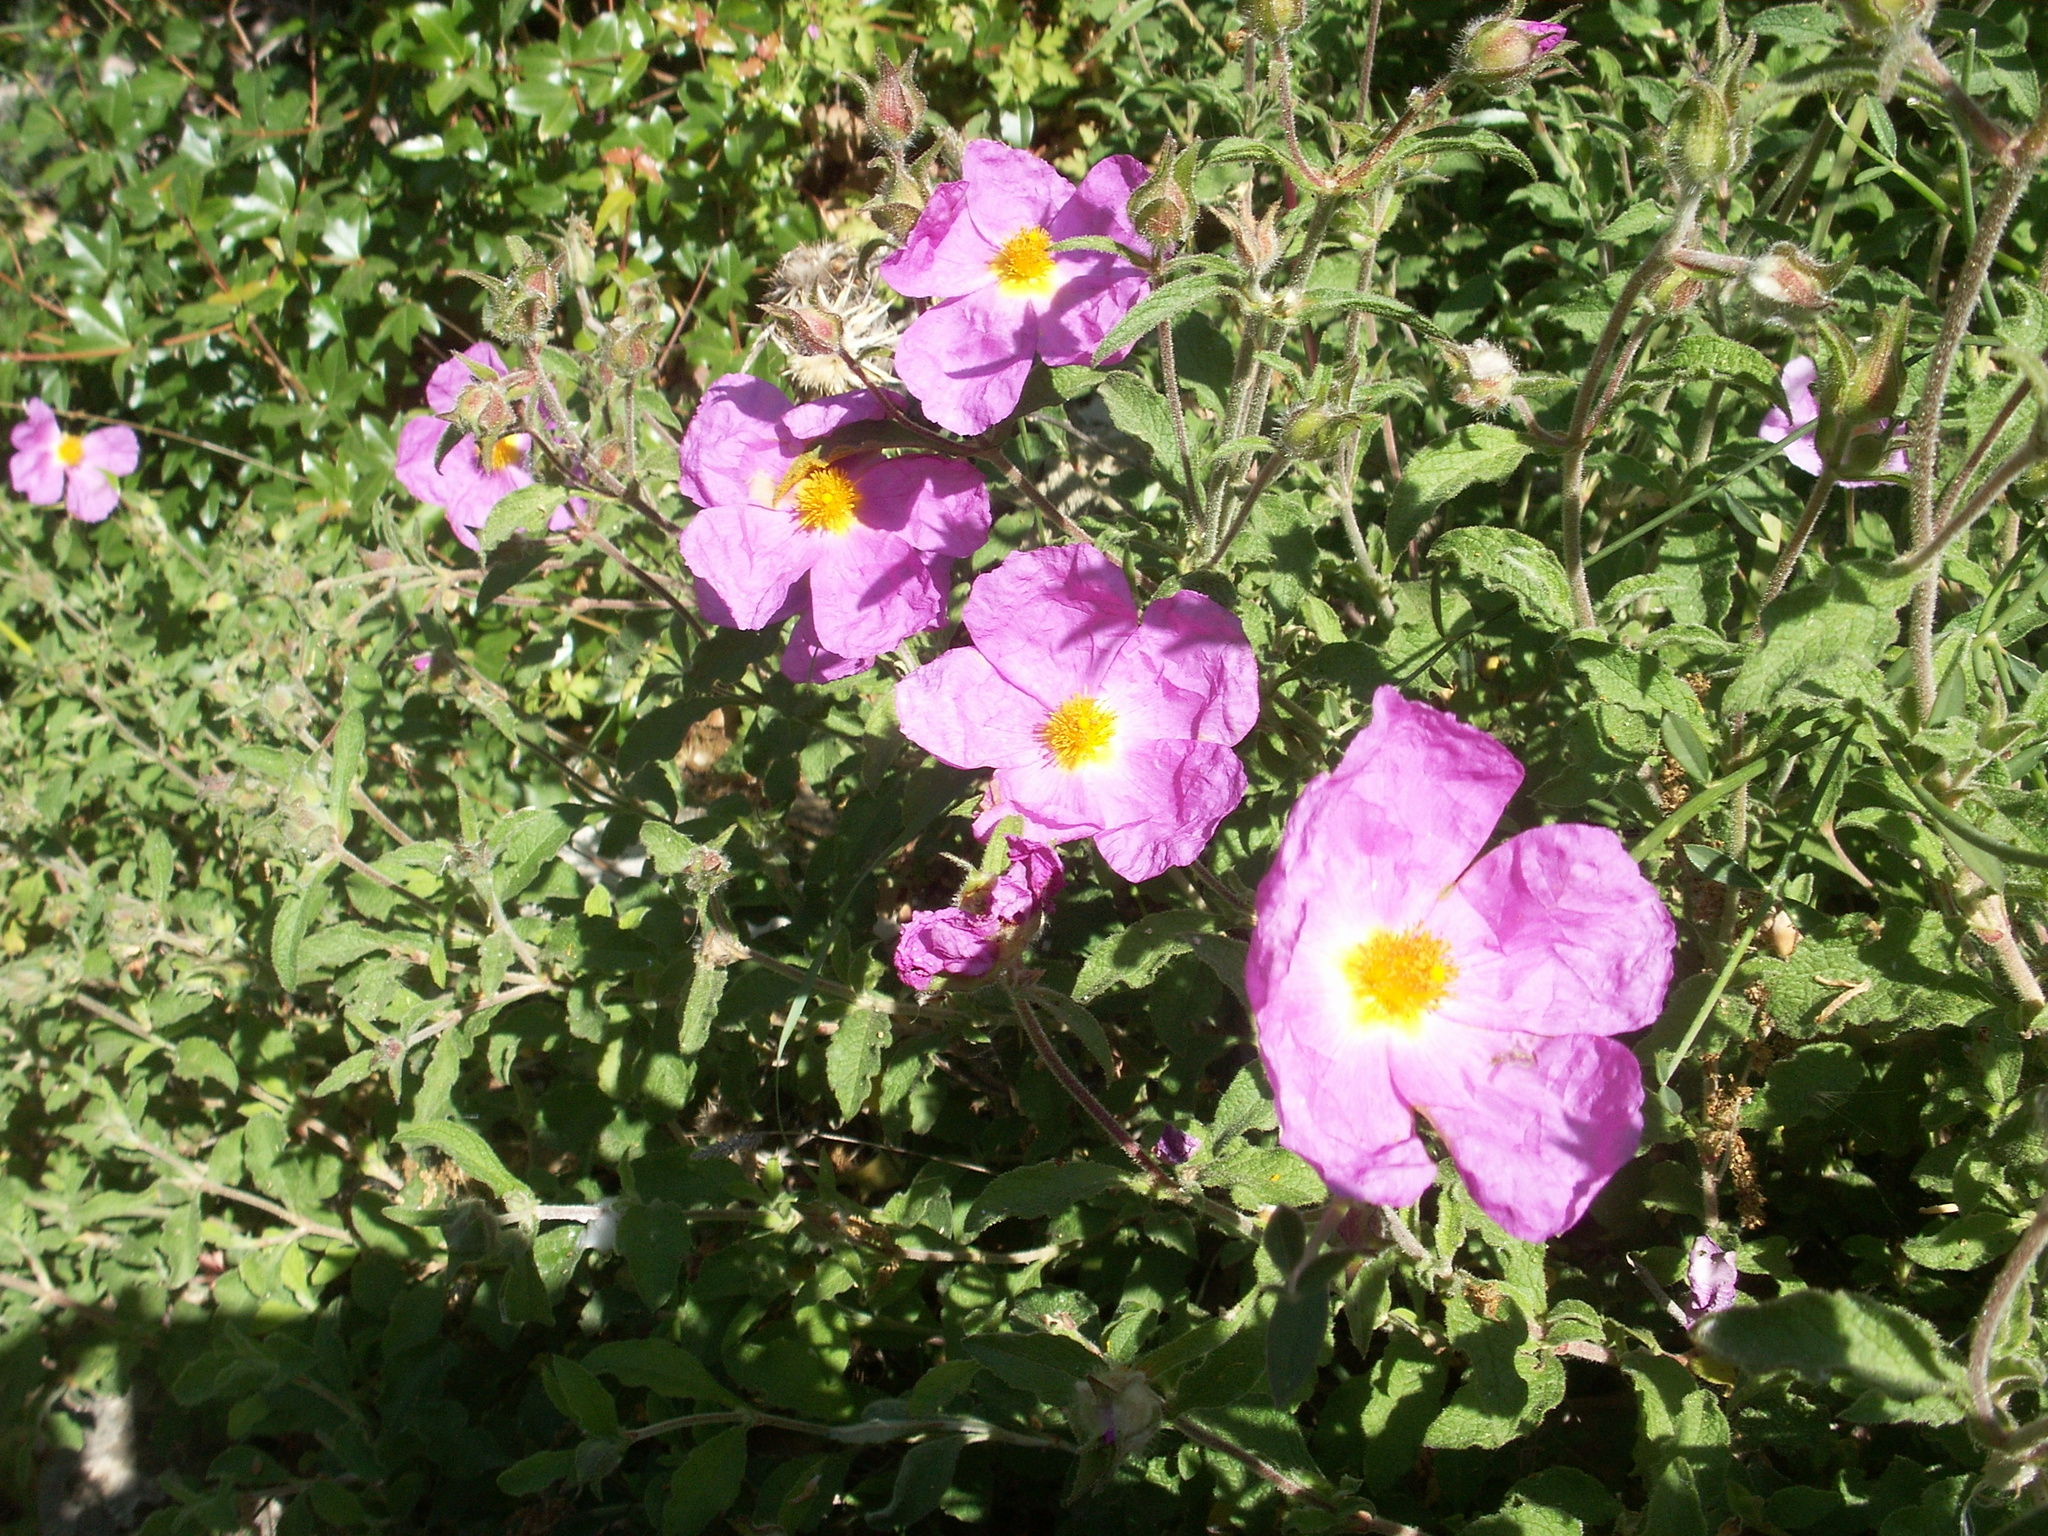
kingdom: Plantae
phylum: Tracheophyta
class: Magnoliopsida
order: Malvales
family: Cistaceae
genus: Cistus
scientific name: Cistus creticus
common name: Cretan rockrose
